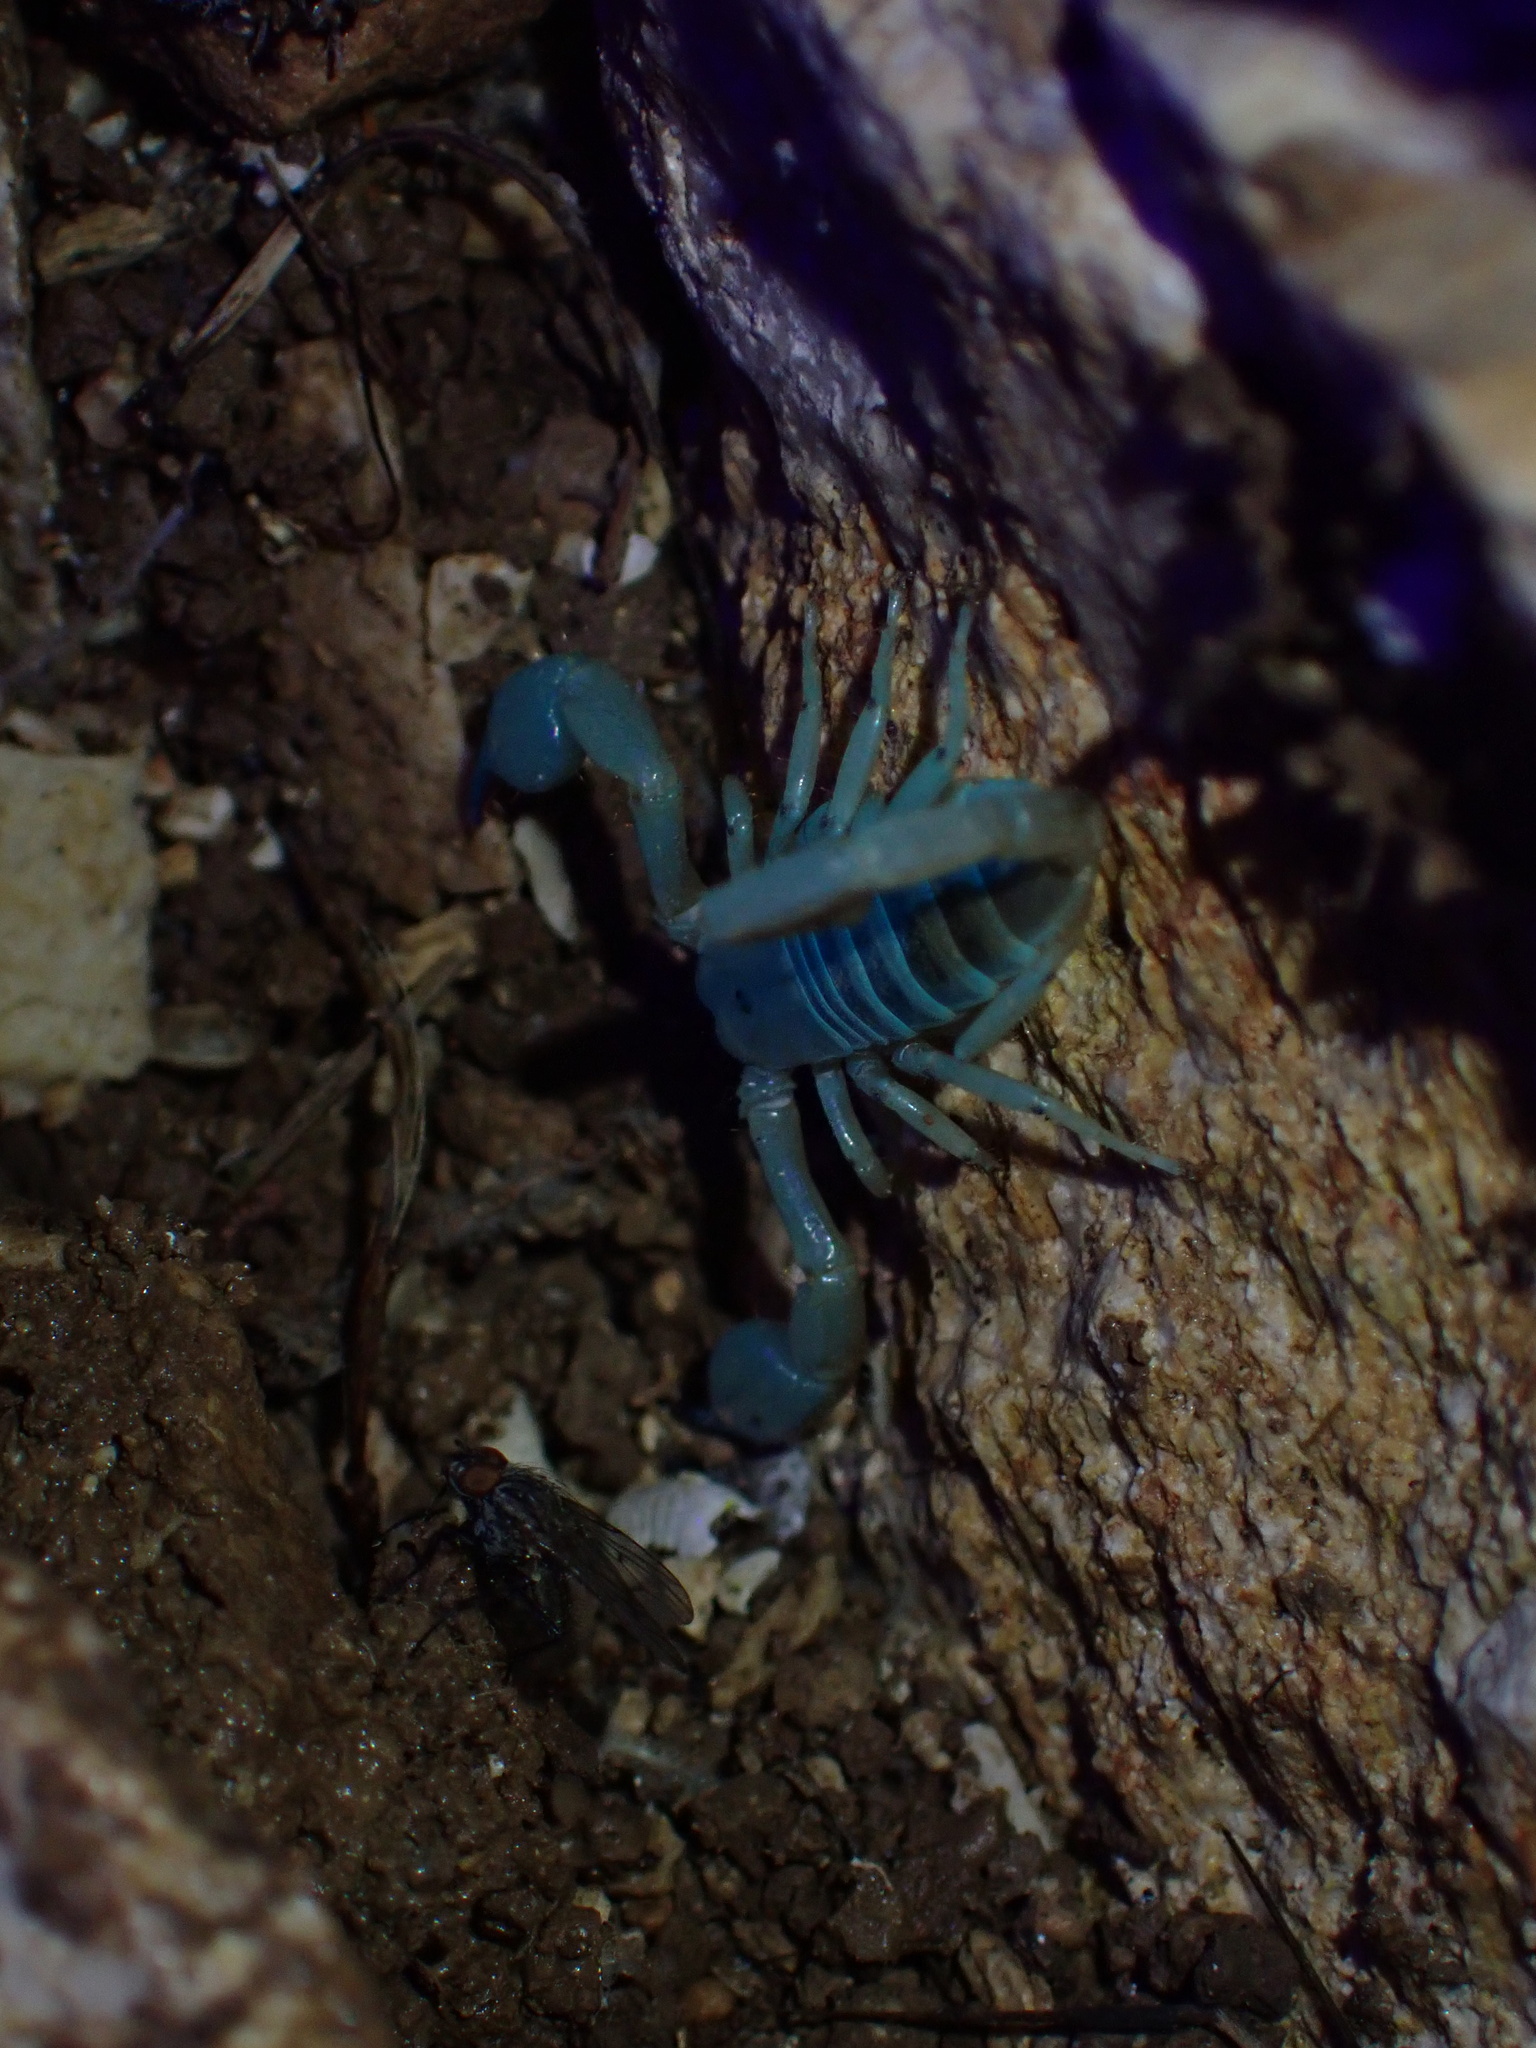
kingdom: Animalia
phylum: Arthropoda
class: Arachnida
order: Scorpiones
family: Hemiscorpiidae
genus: Hemiscorpius
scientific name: Hemiscorpius lepturus
